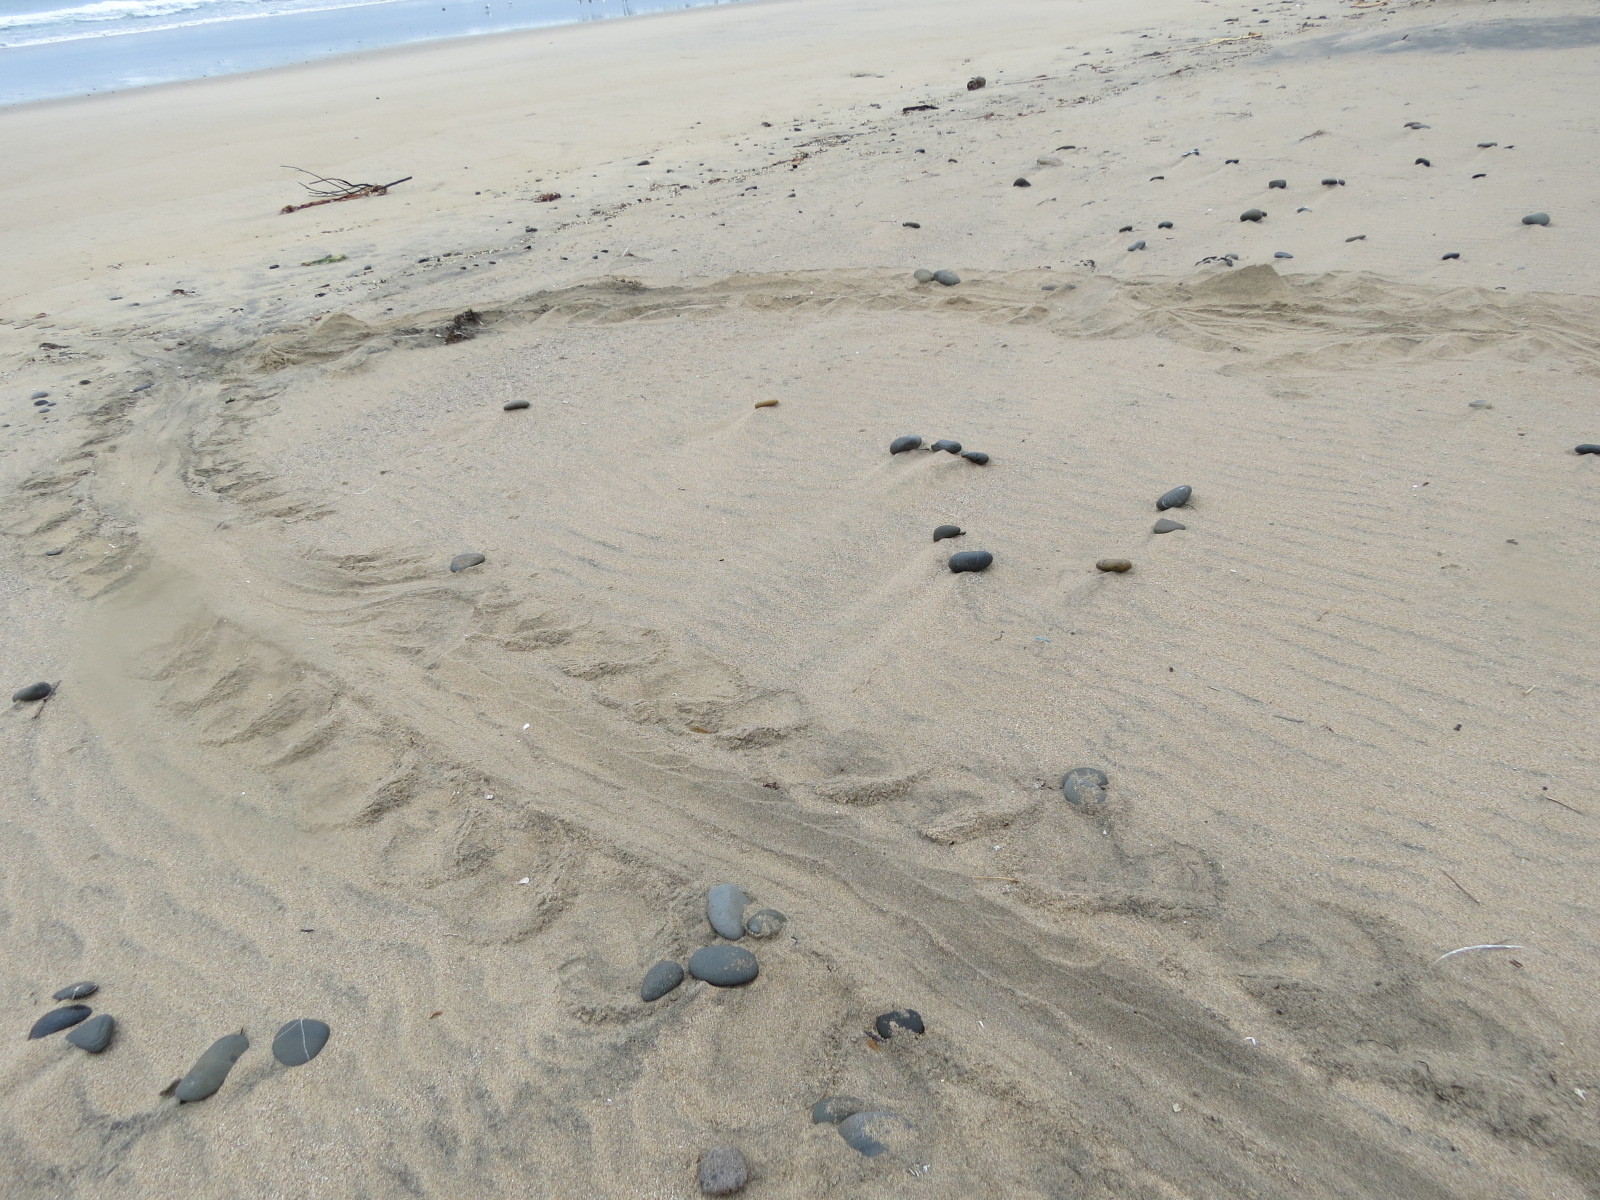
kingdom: Animalia
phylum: Chordata
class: Mammalia
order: Carnivora
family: Phocidae
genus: Mirounga
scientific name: Mirounga angustirostris
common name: Northern elephant seal
